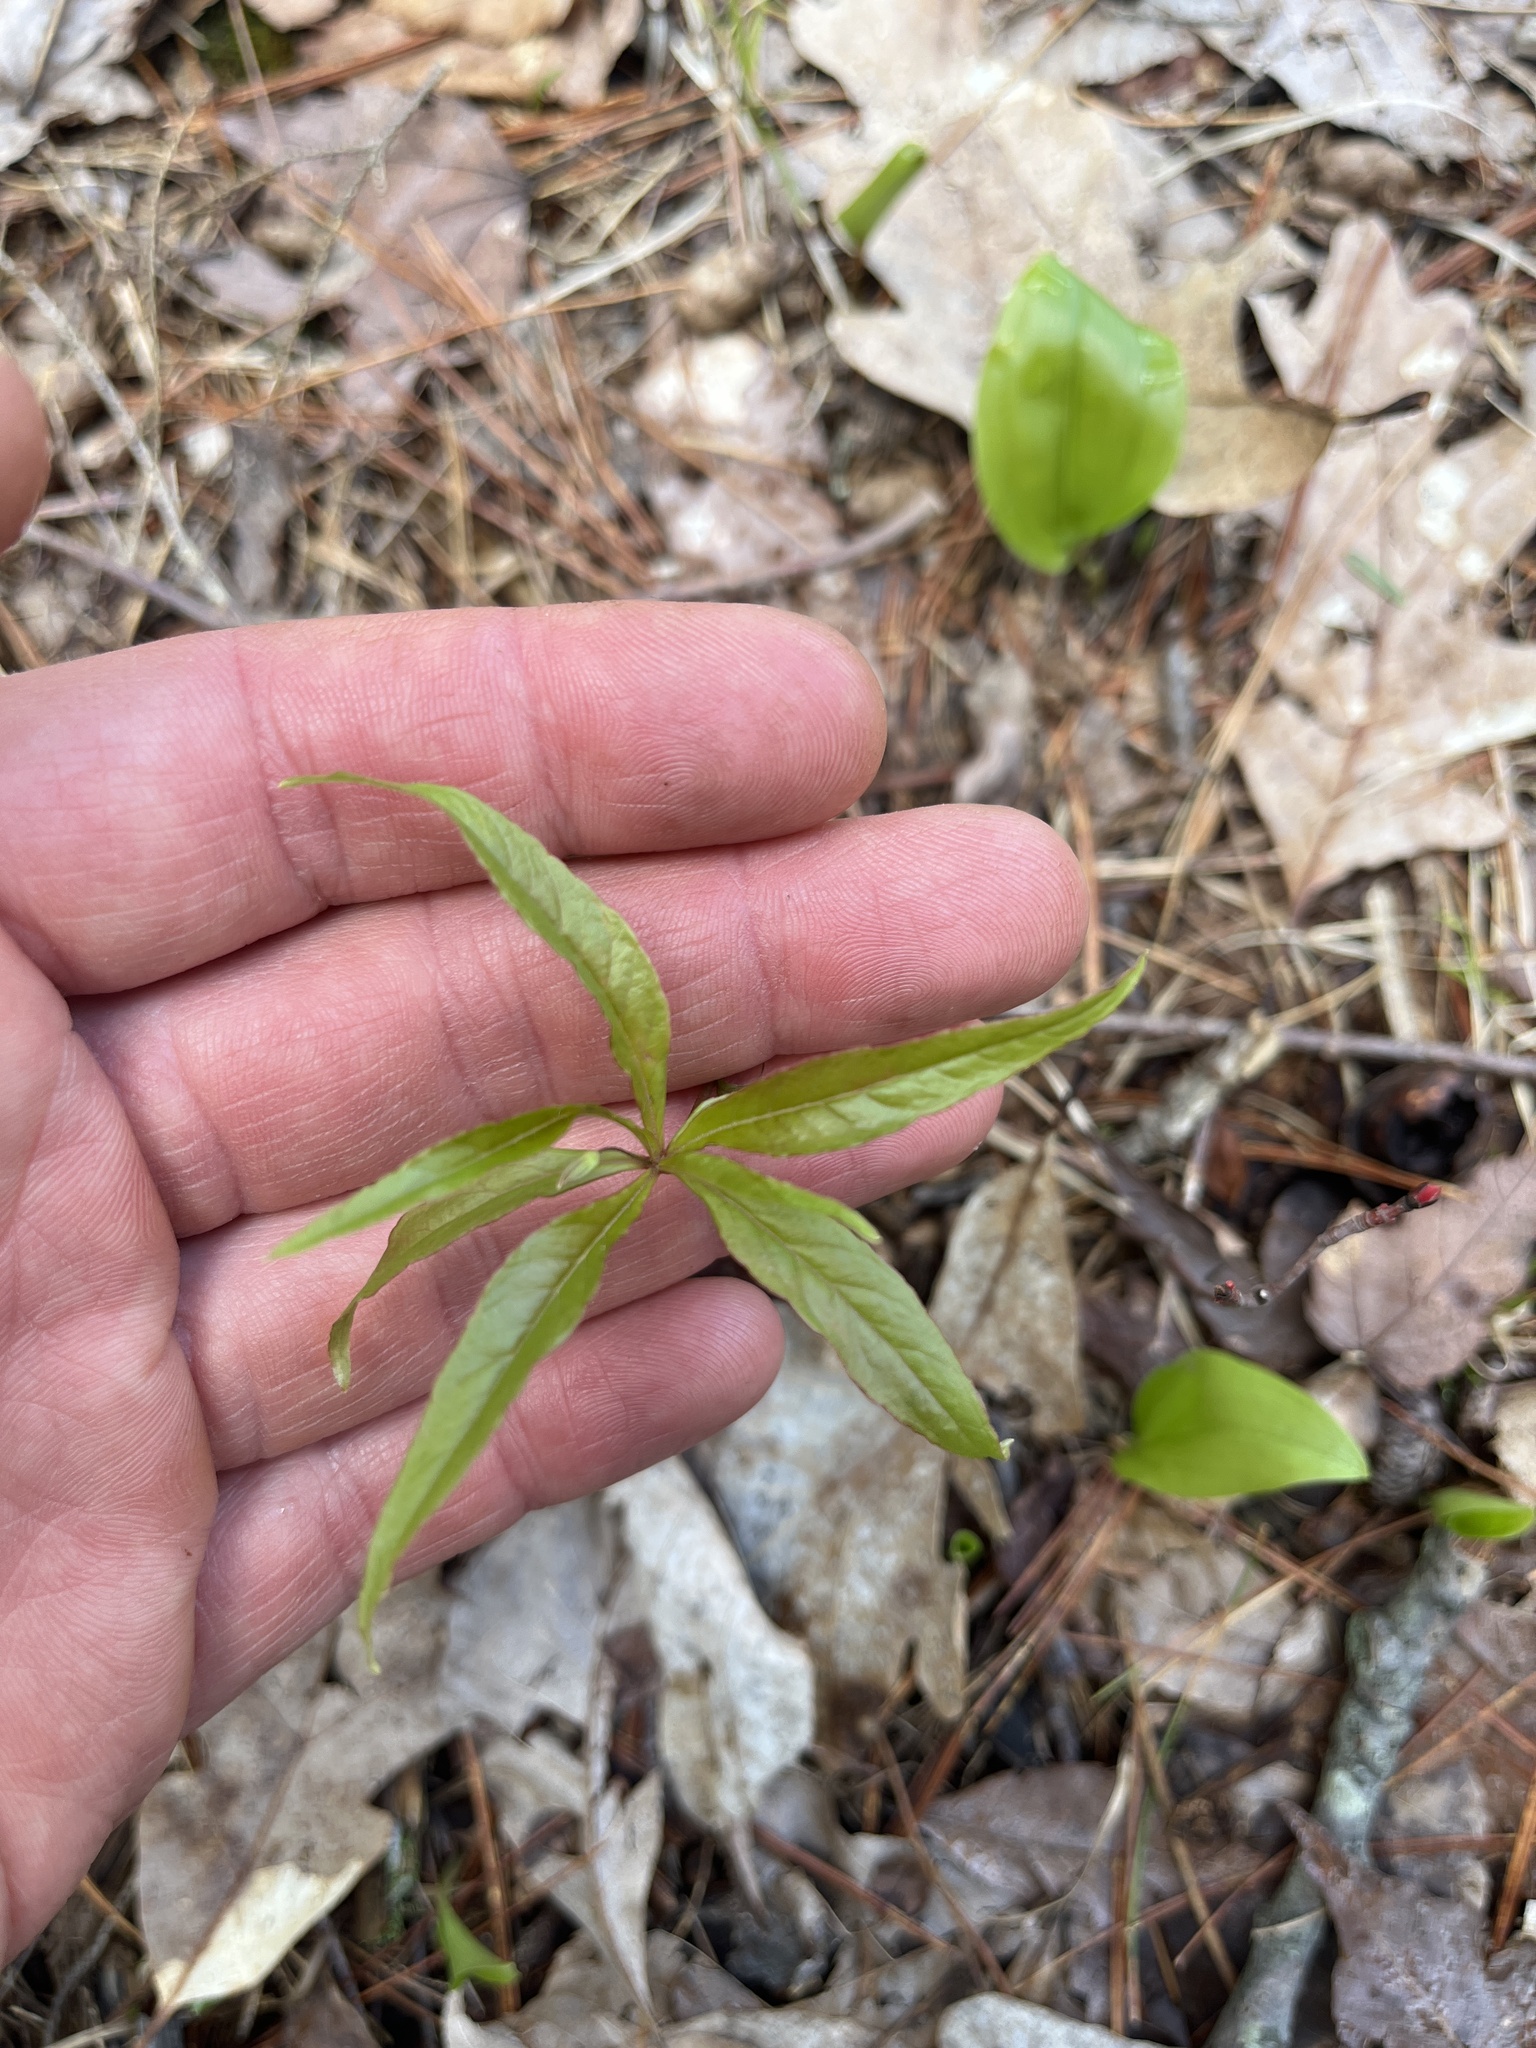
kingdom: Plantae
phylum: Tracheophyta
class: Magnoliopsida
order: Ericales
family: Primulaceae
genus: Lysimachia
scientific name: Lysimachia borealis
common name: American starflower
